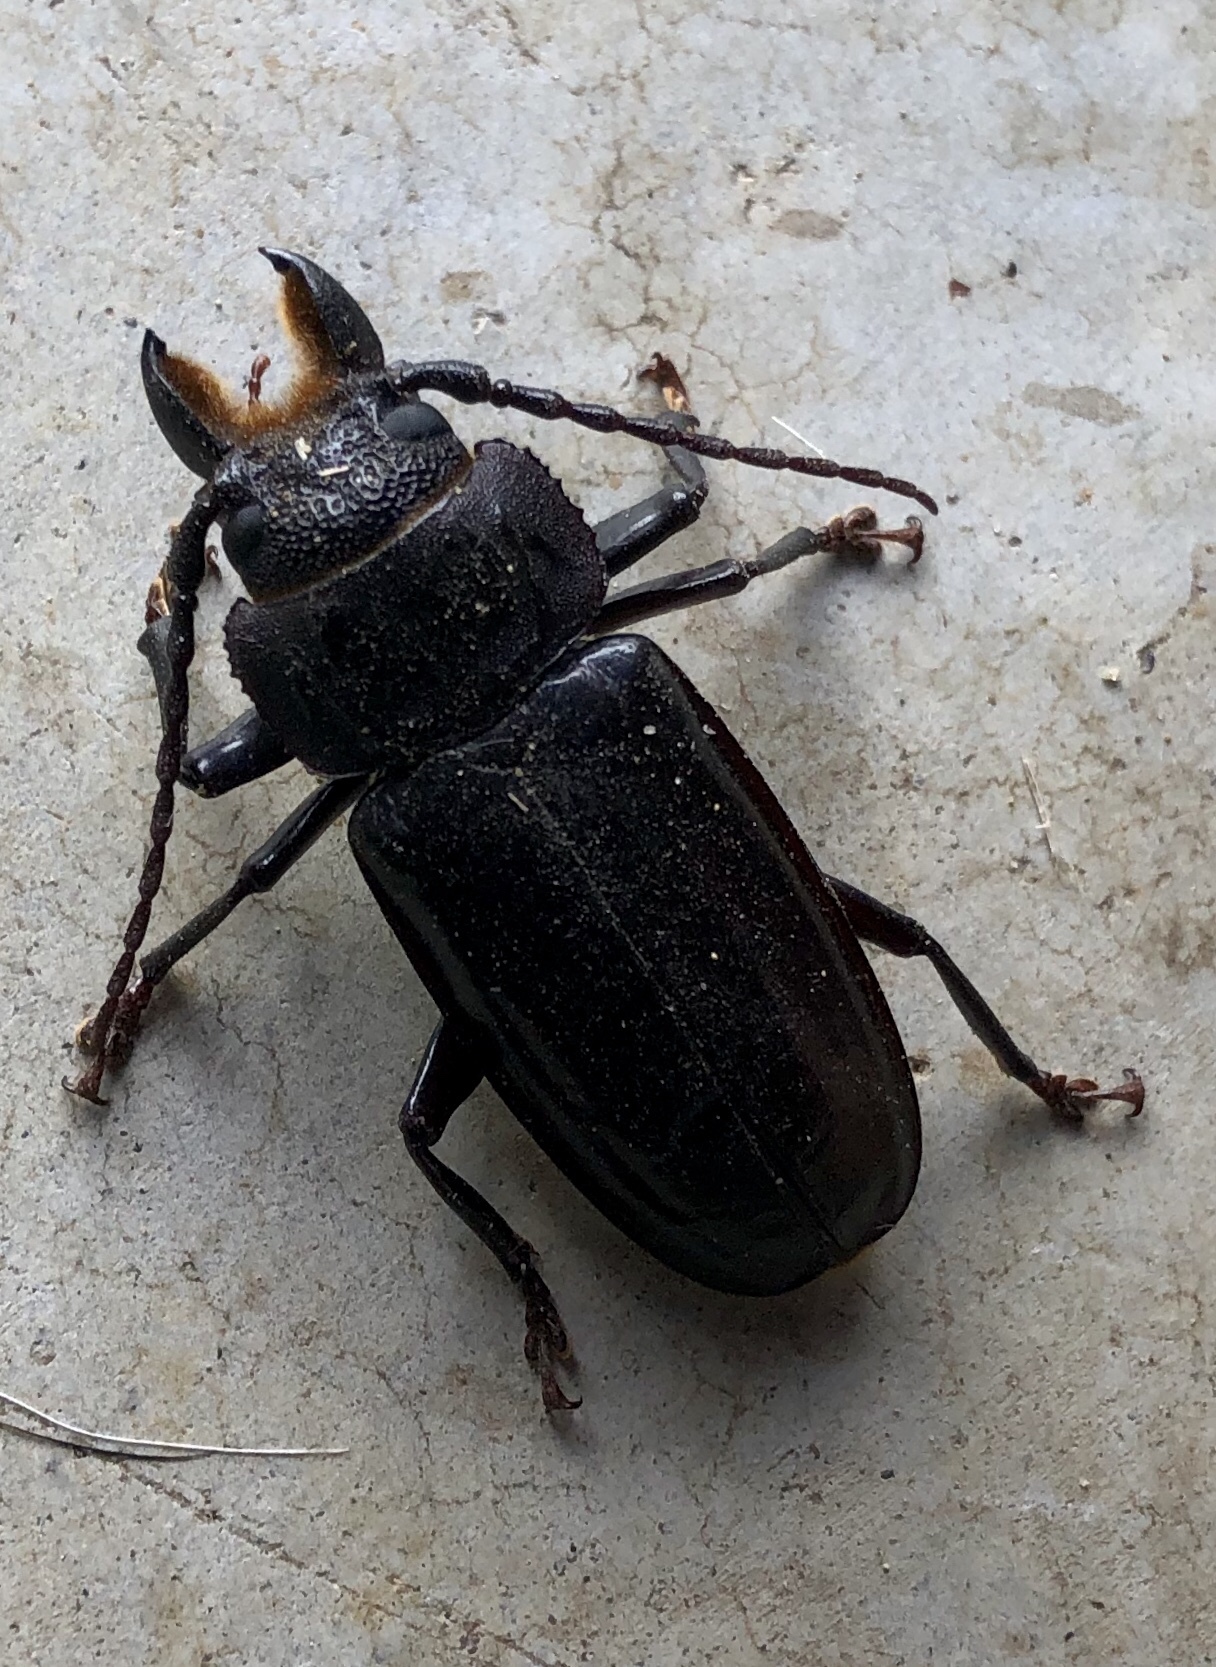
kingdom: Animalia
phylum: Arthropoda
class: Insecta
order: Coleoptera
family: Cerambycidae
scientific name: Cerambycidae
